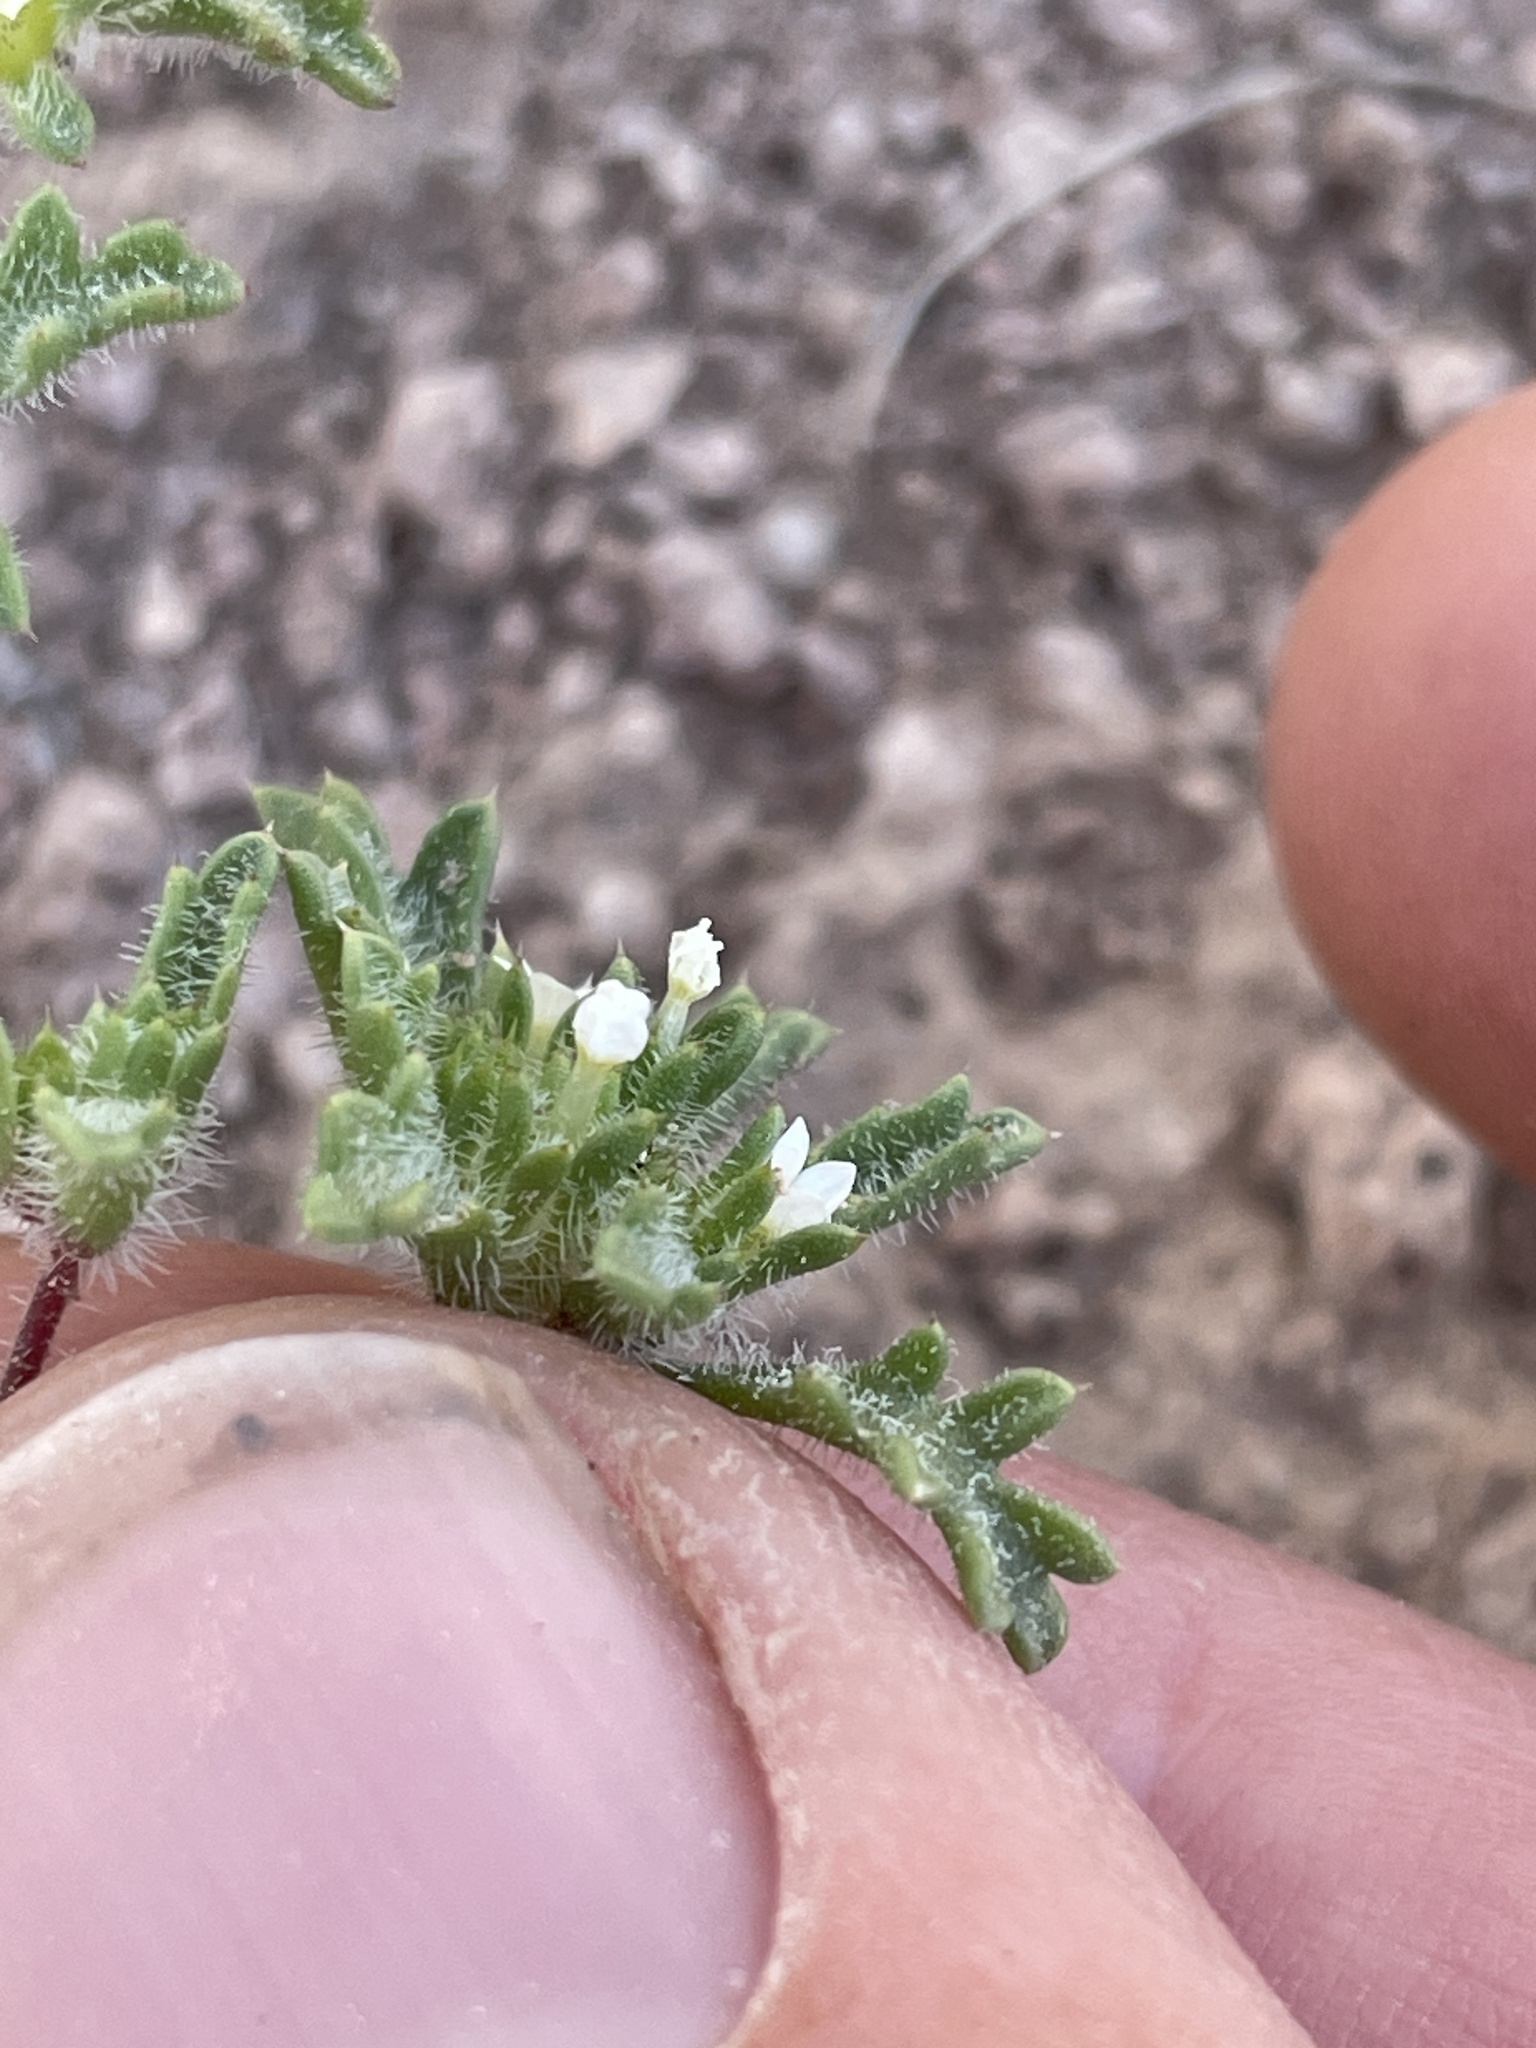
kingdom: Plantae
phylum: Tracheophyta
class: Magnoliopsida
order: Ericales
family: Polemoniaceae
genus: Ipomopsis
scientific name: Ipomopsis polycladon
